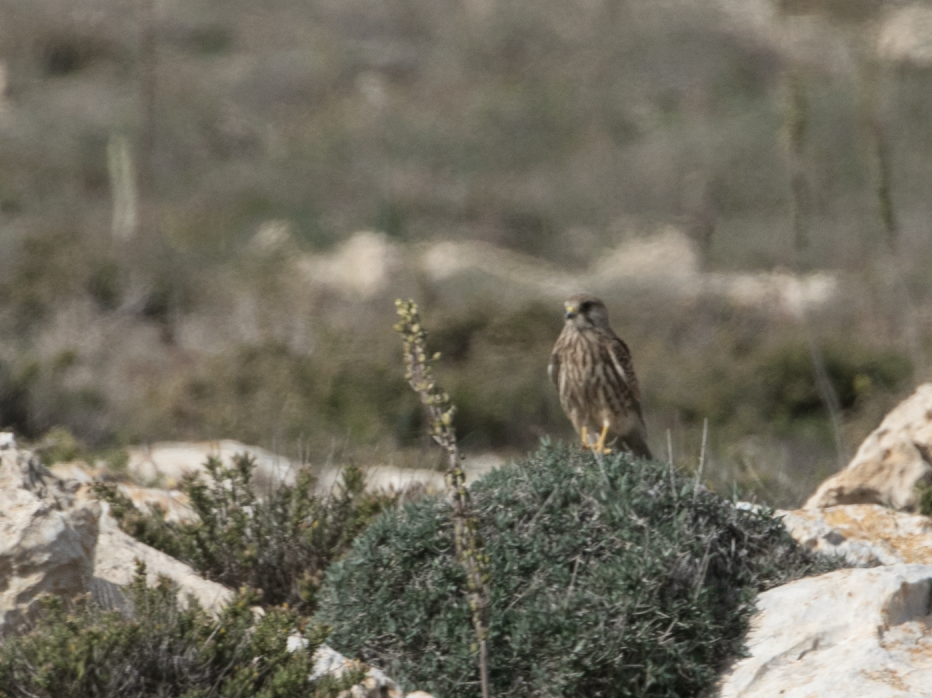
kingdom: Animalia
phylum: Chordata
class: Aves
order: Falconiformes
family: Falconidae
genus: Falco
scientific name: Falco tinnunculus
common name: Common kestrel
